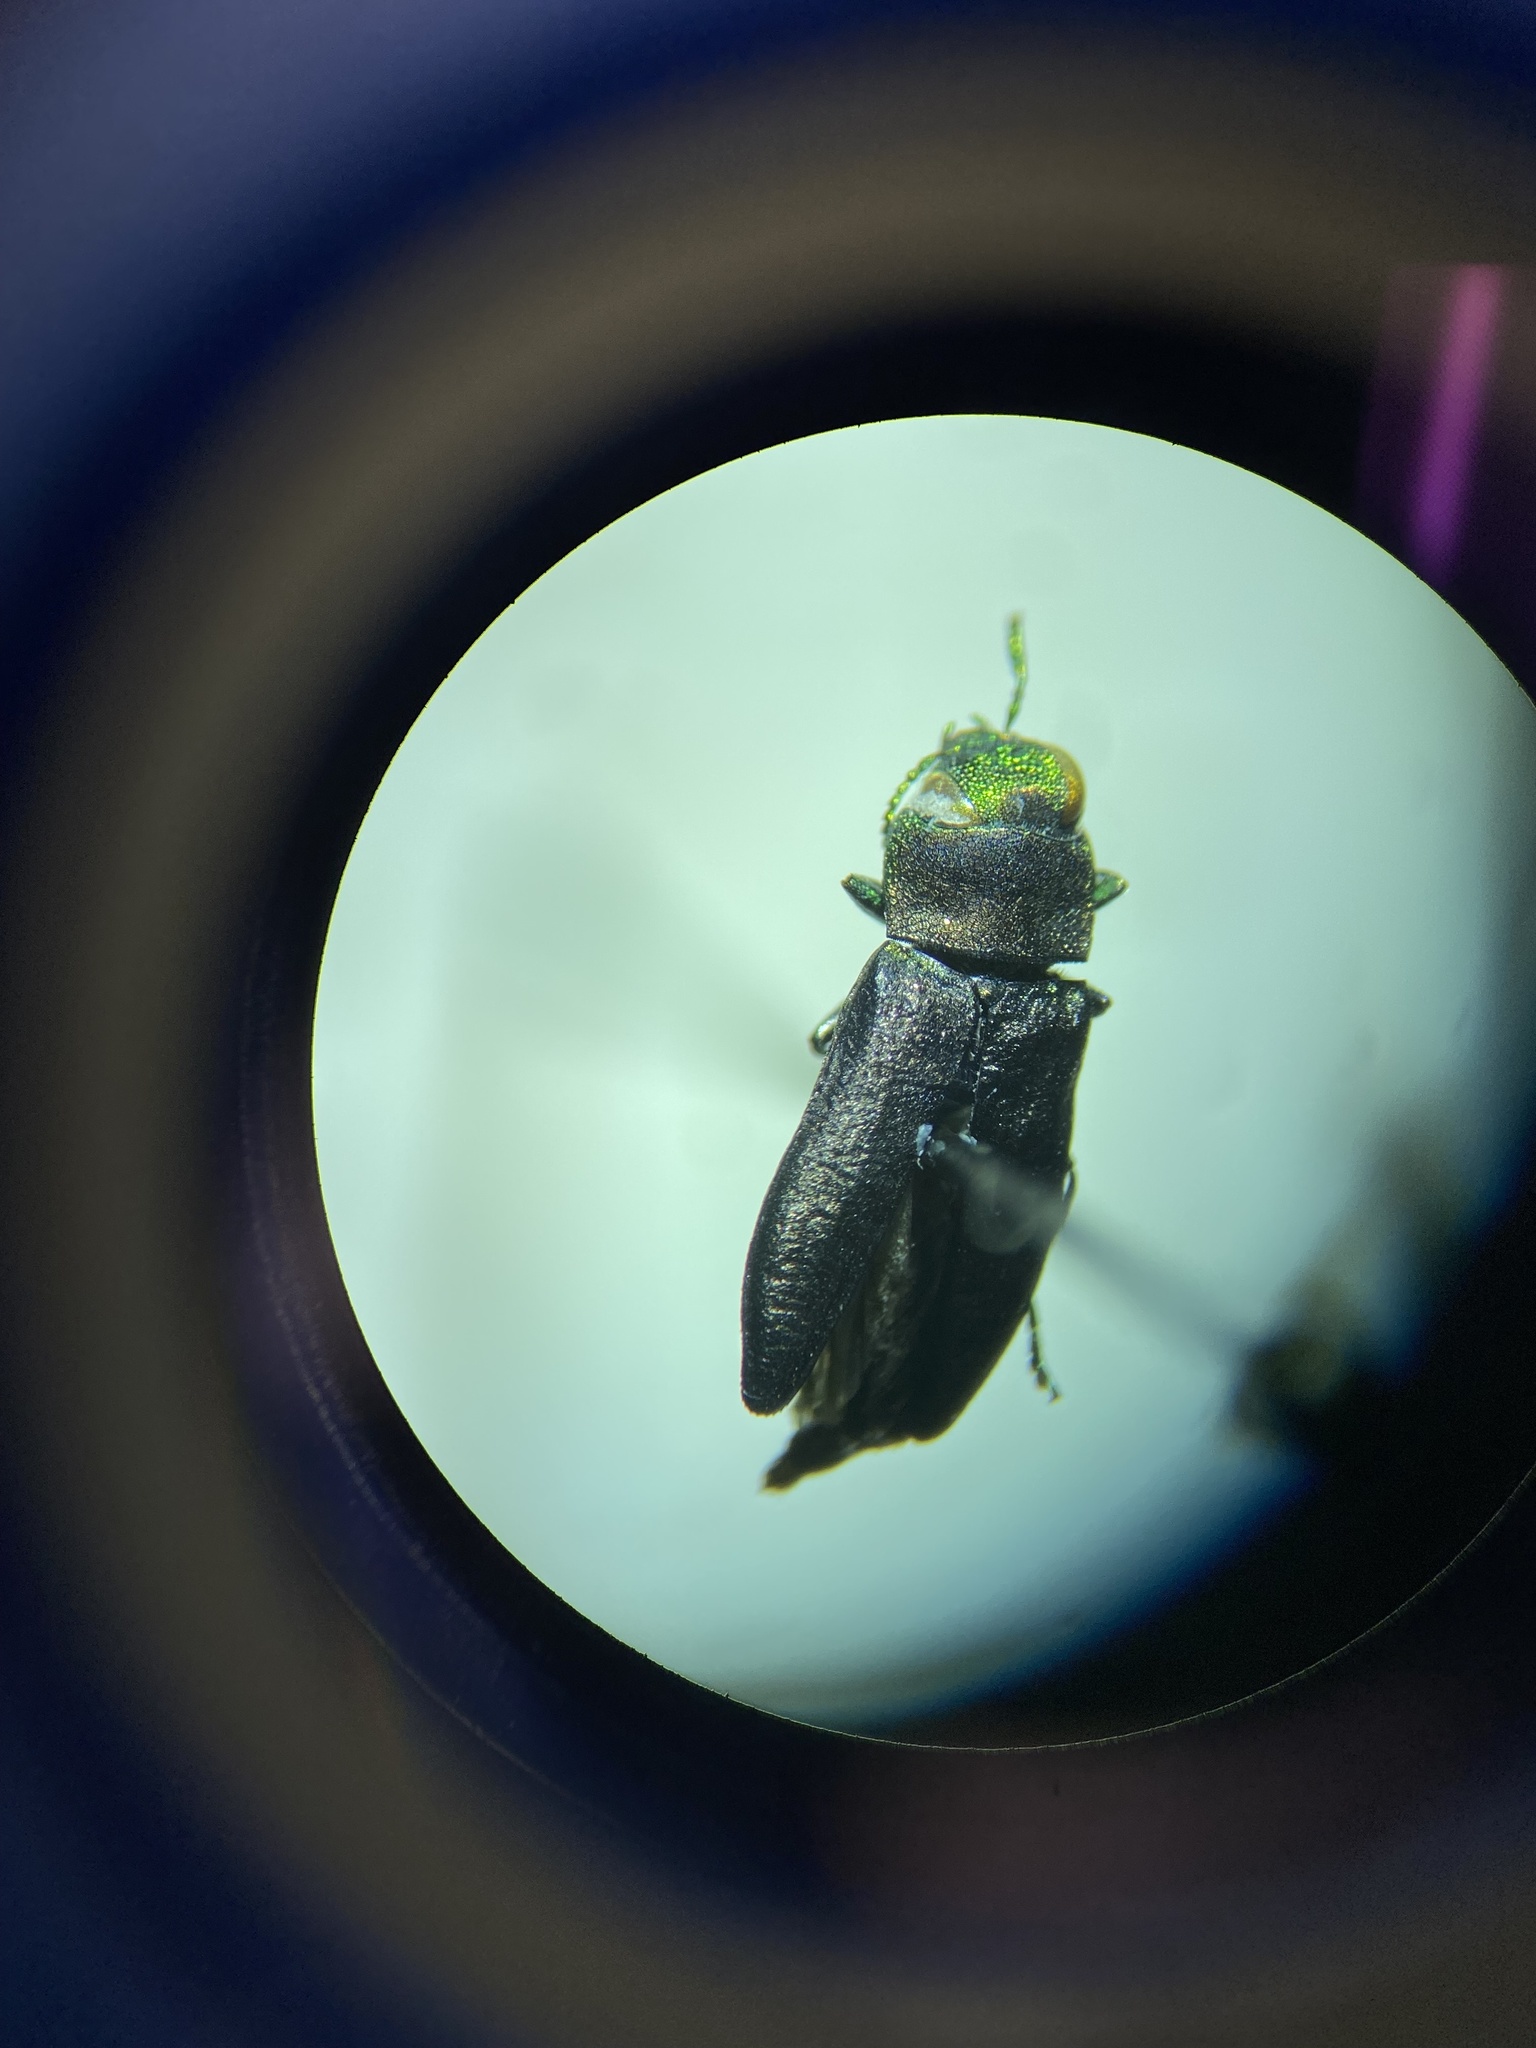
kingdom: Animalia
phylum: Arthropoda
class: Insecta
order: Coleoptera
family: Buprestidae
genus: Anthaxia
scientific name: Anthaxia viridifrons
